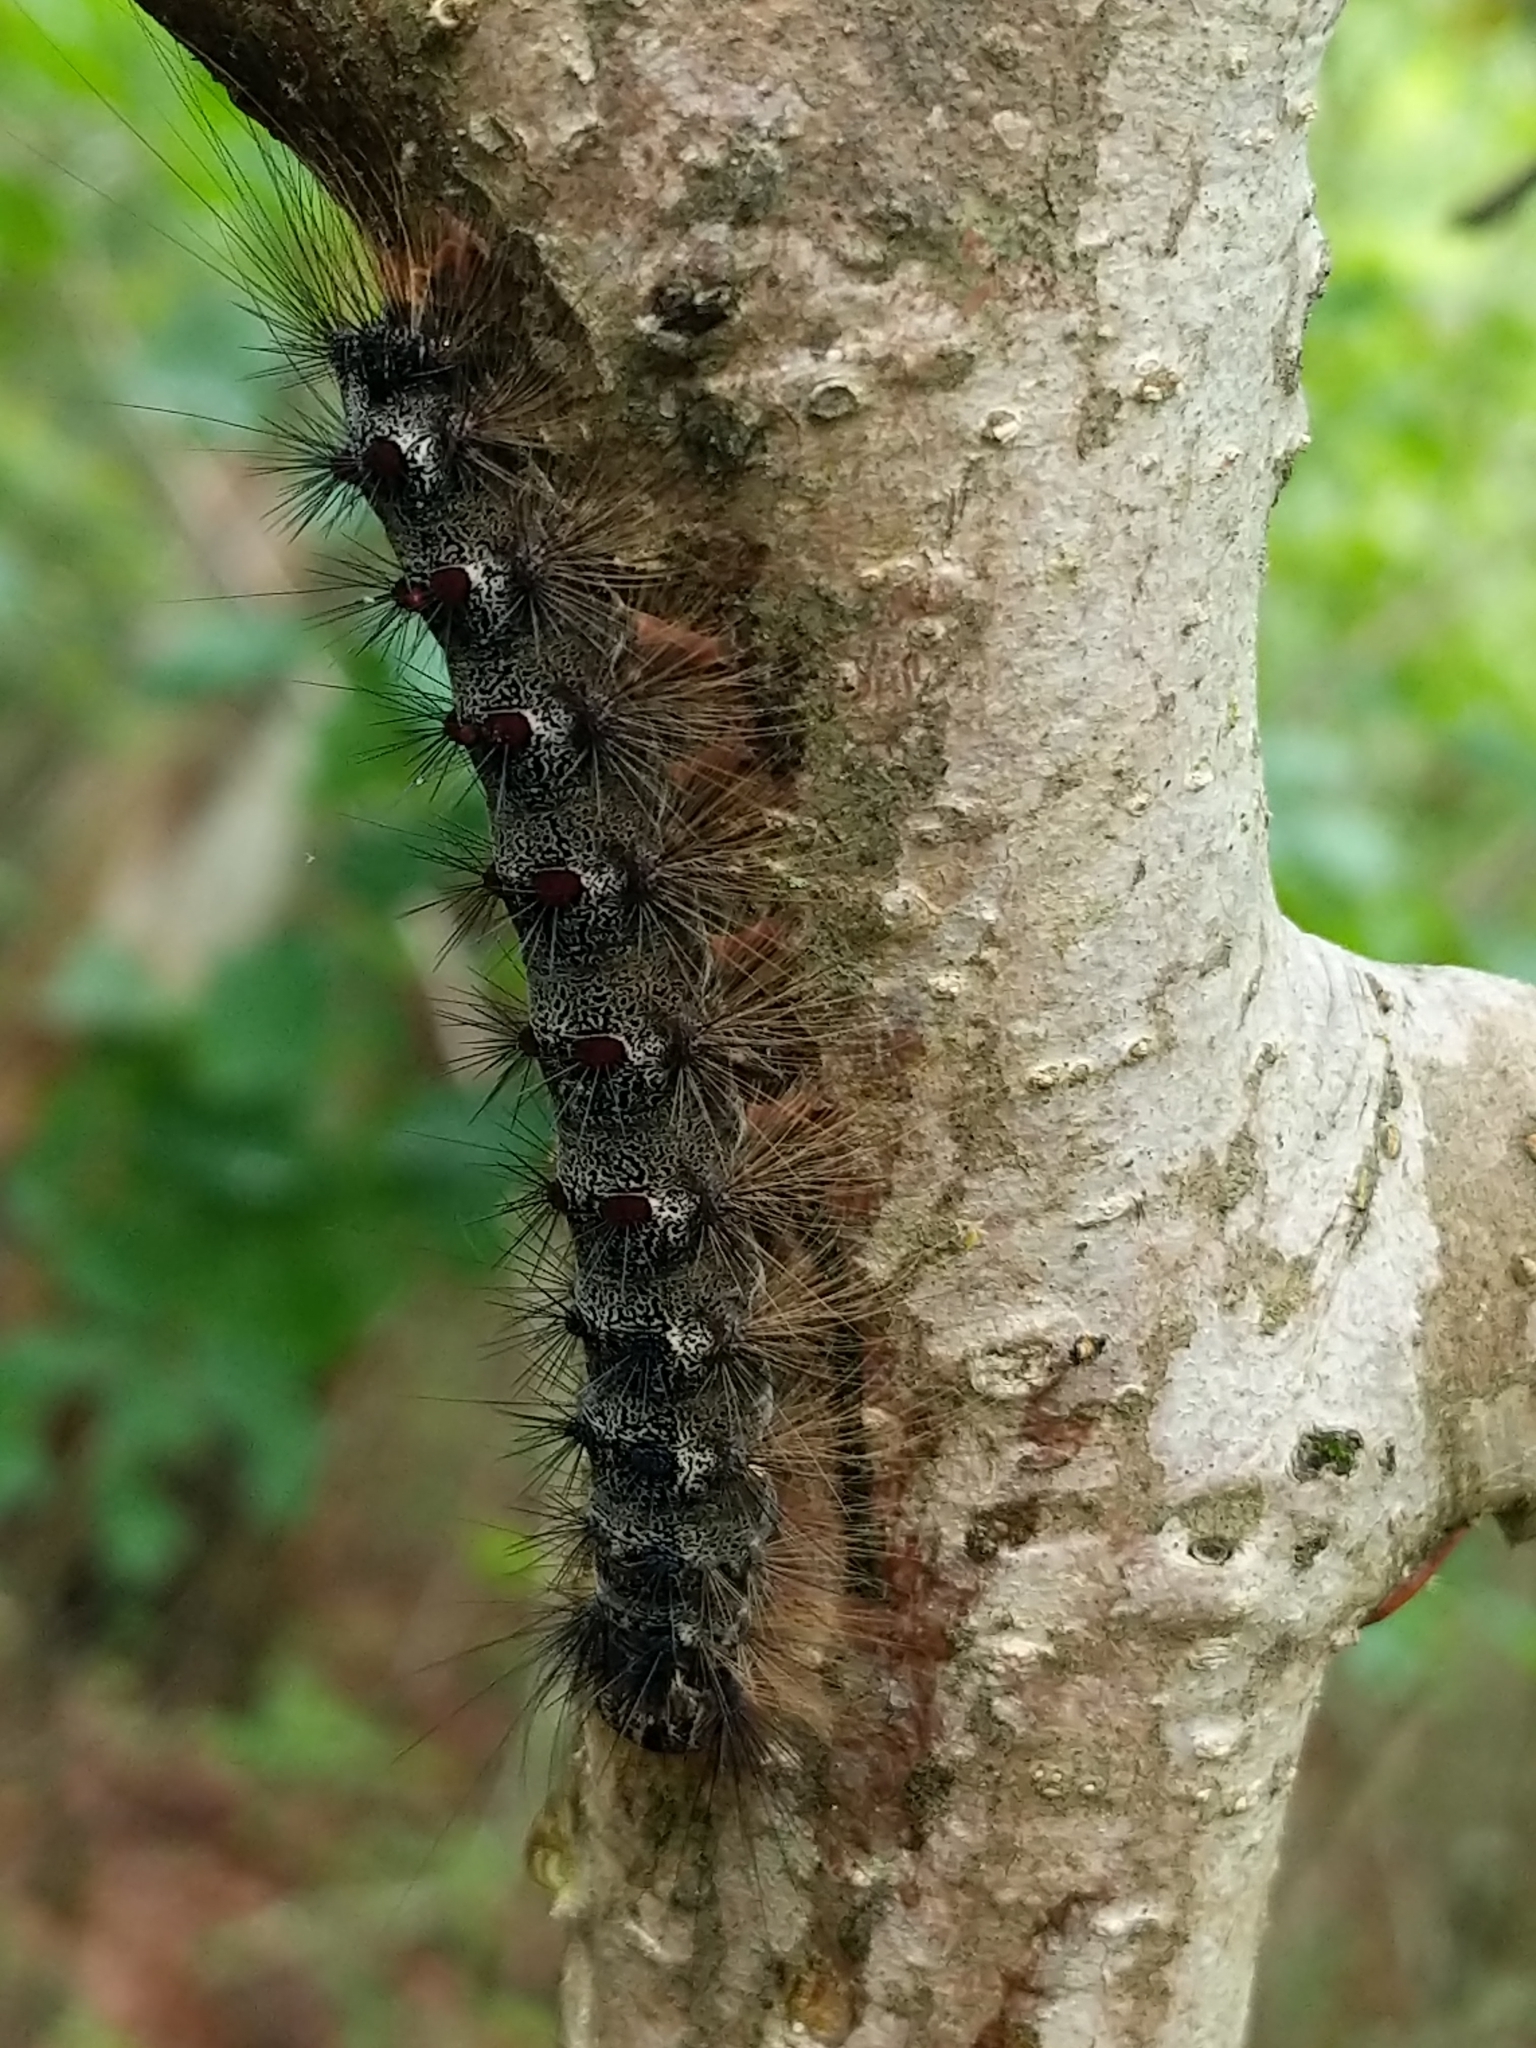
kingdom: Animalia
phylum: Arthropoda
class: Insecta
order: Lepidoptera
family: Erebidae
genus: Lymantria
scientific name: Lymantria dispar
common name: Gypsy moth
